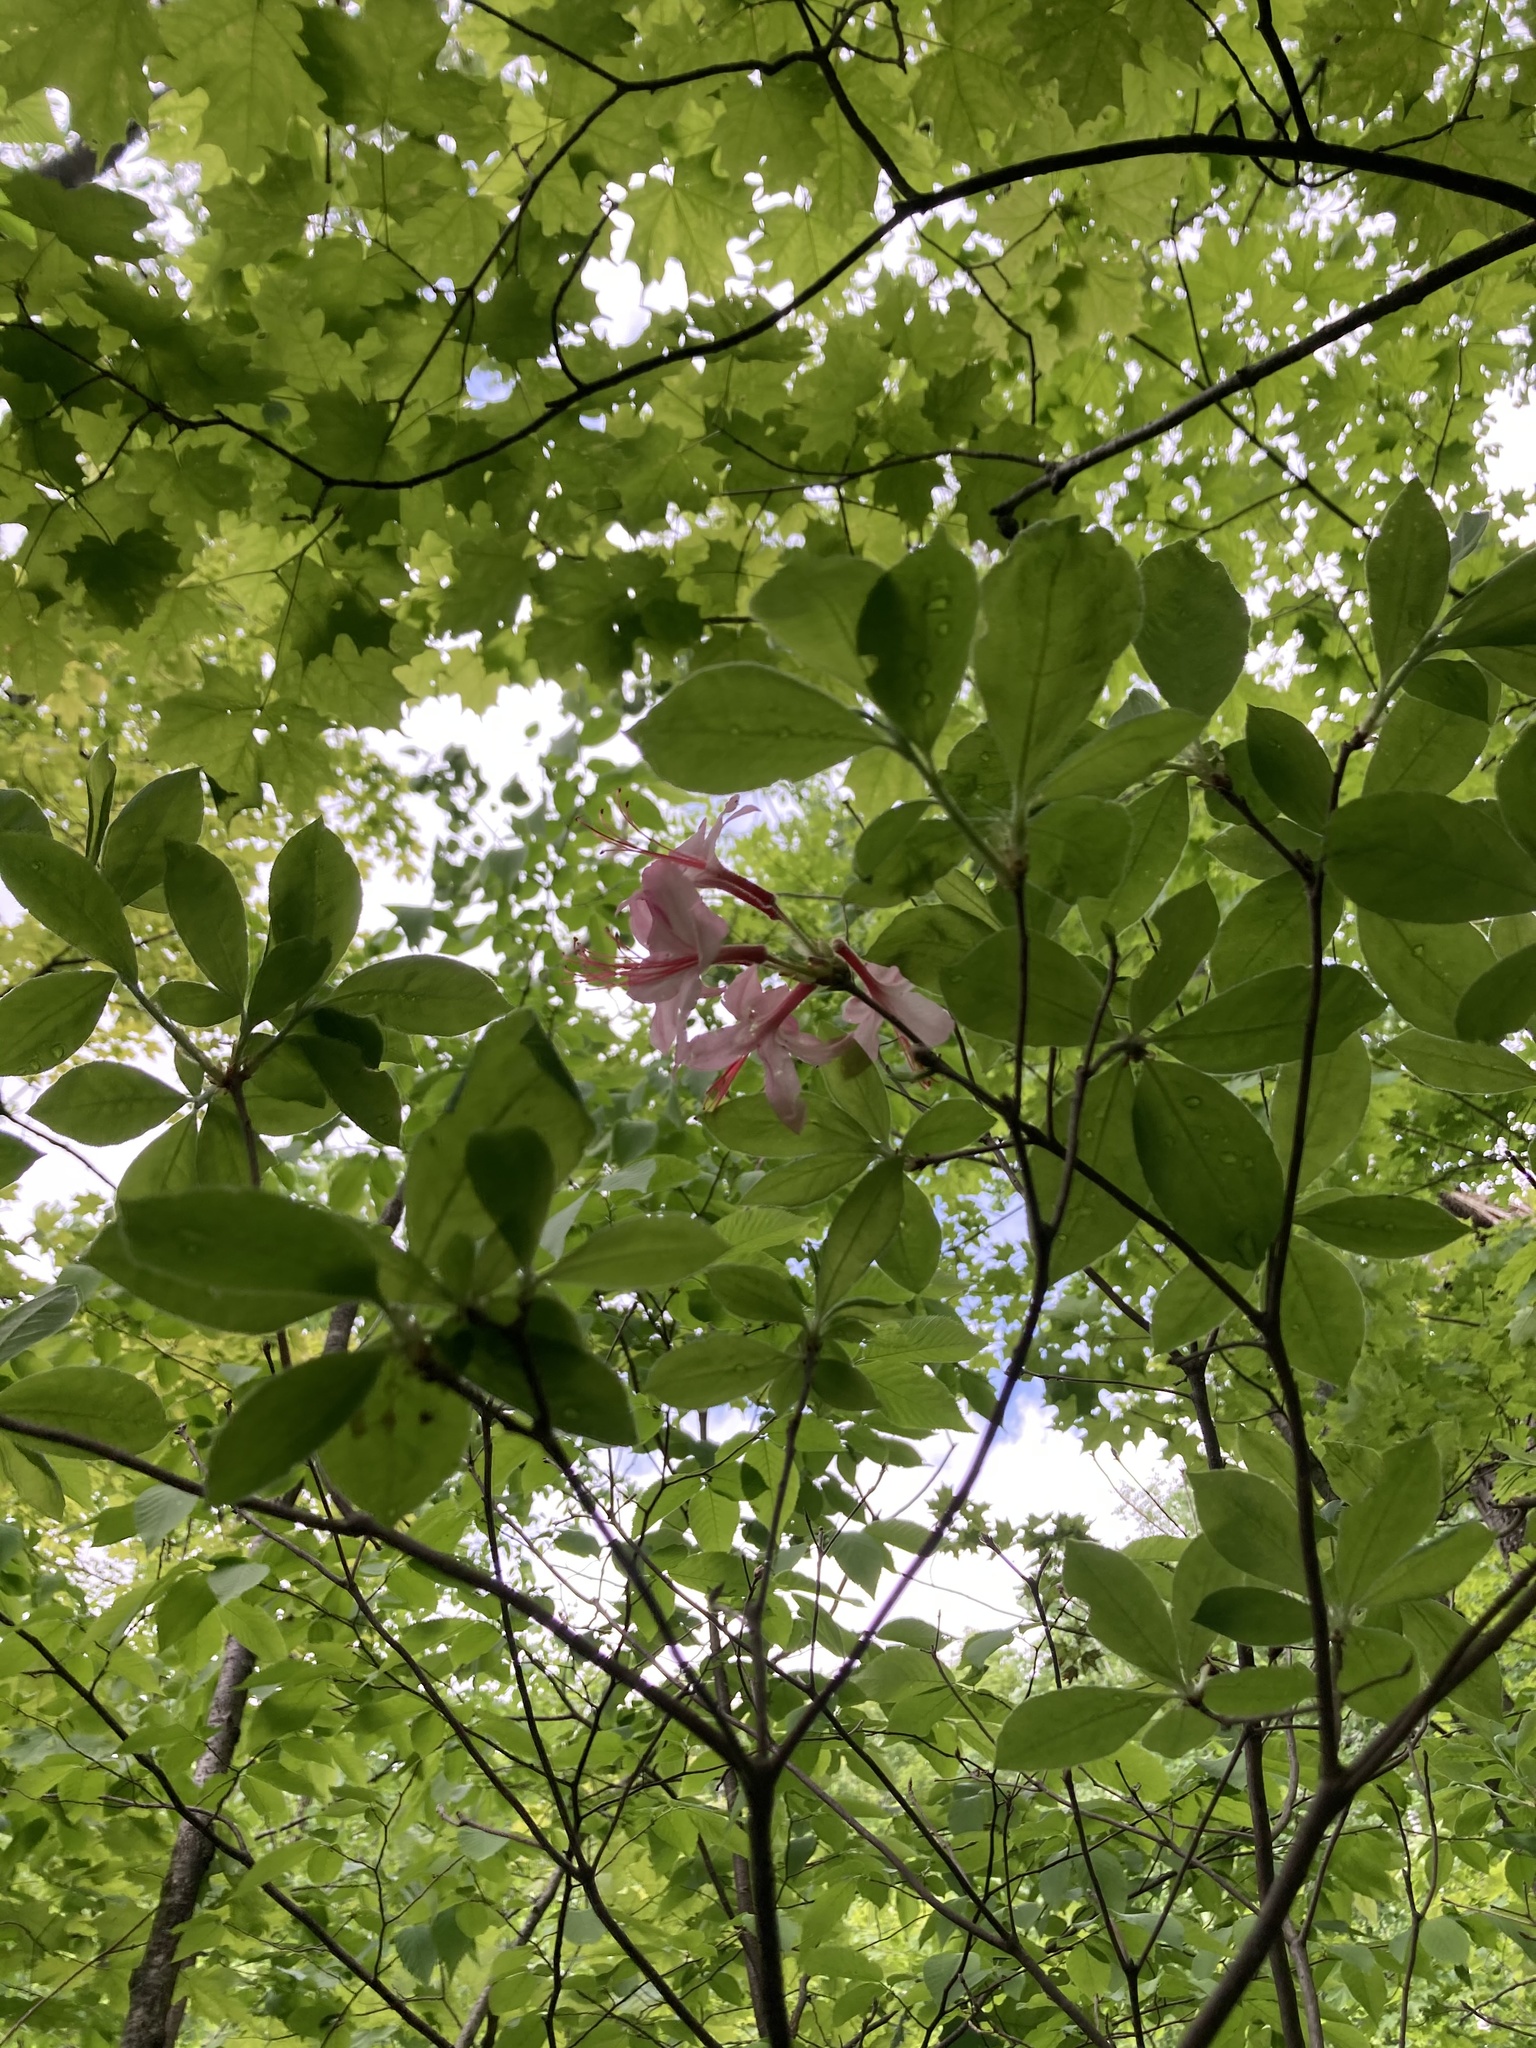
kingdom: Plantae
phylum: Tracheophyta
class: Magnoliopsida
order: Ericales
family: Ericaceae
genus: Rhododendron
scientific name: Rhododendron roseum
